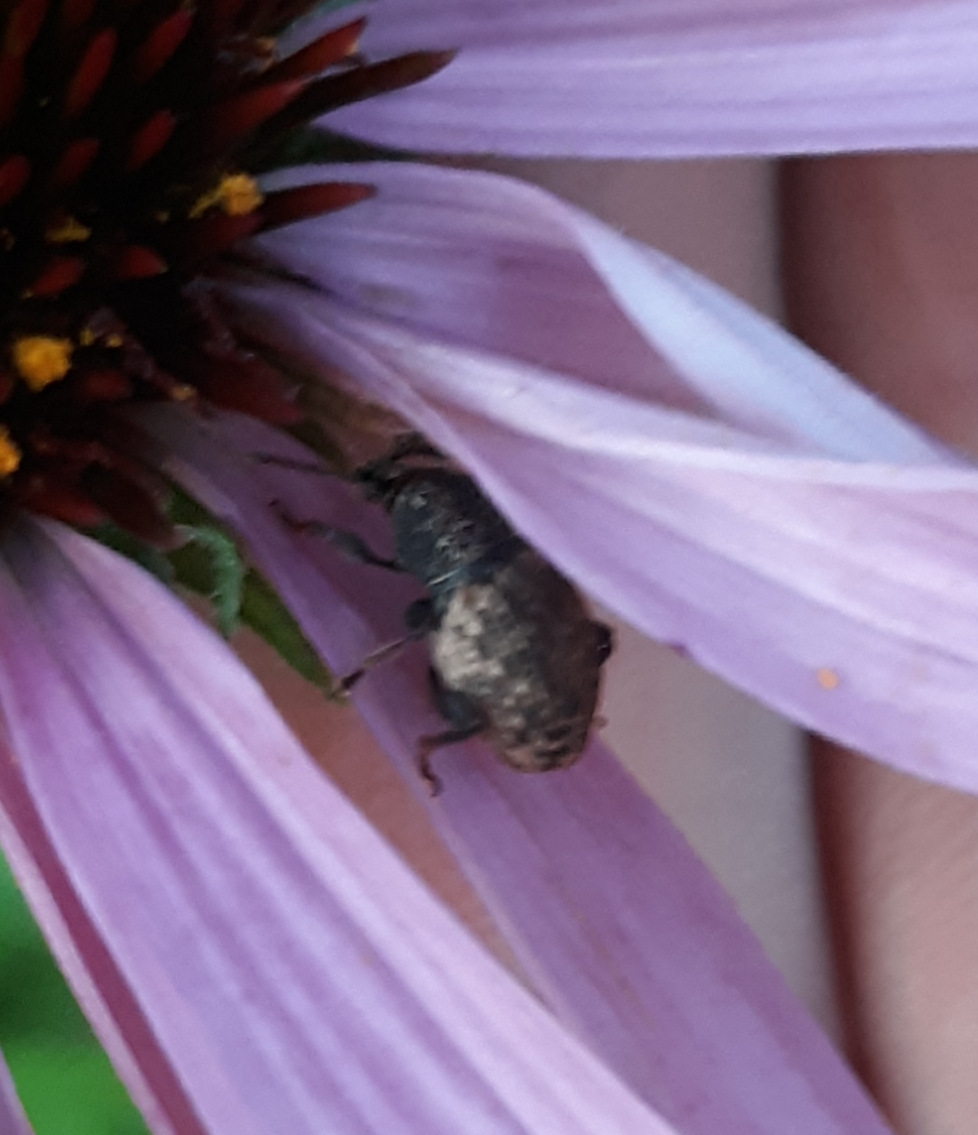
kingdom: Animalia
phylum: Arthropoda
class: Insecta
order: Coleoptera
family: Curculionidae
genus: Otiorhynchus
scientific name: Otiorhynchus raucus
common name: Weevil
